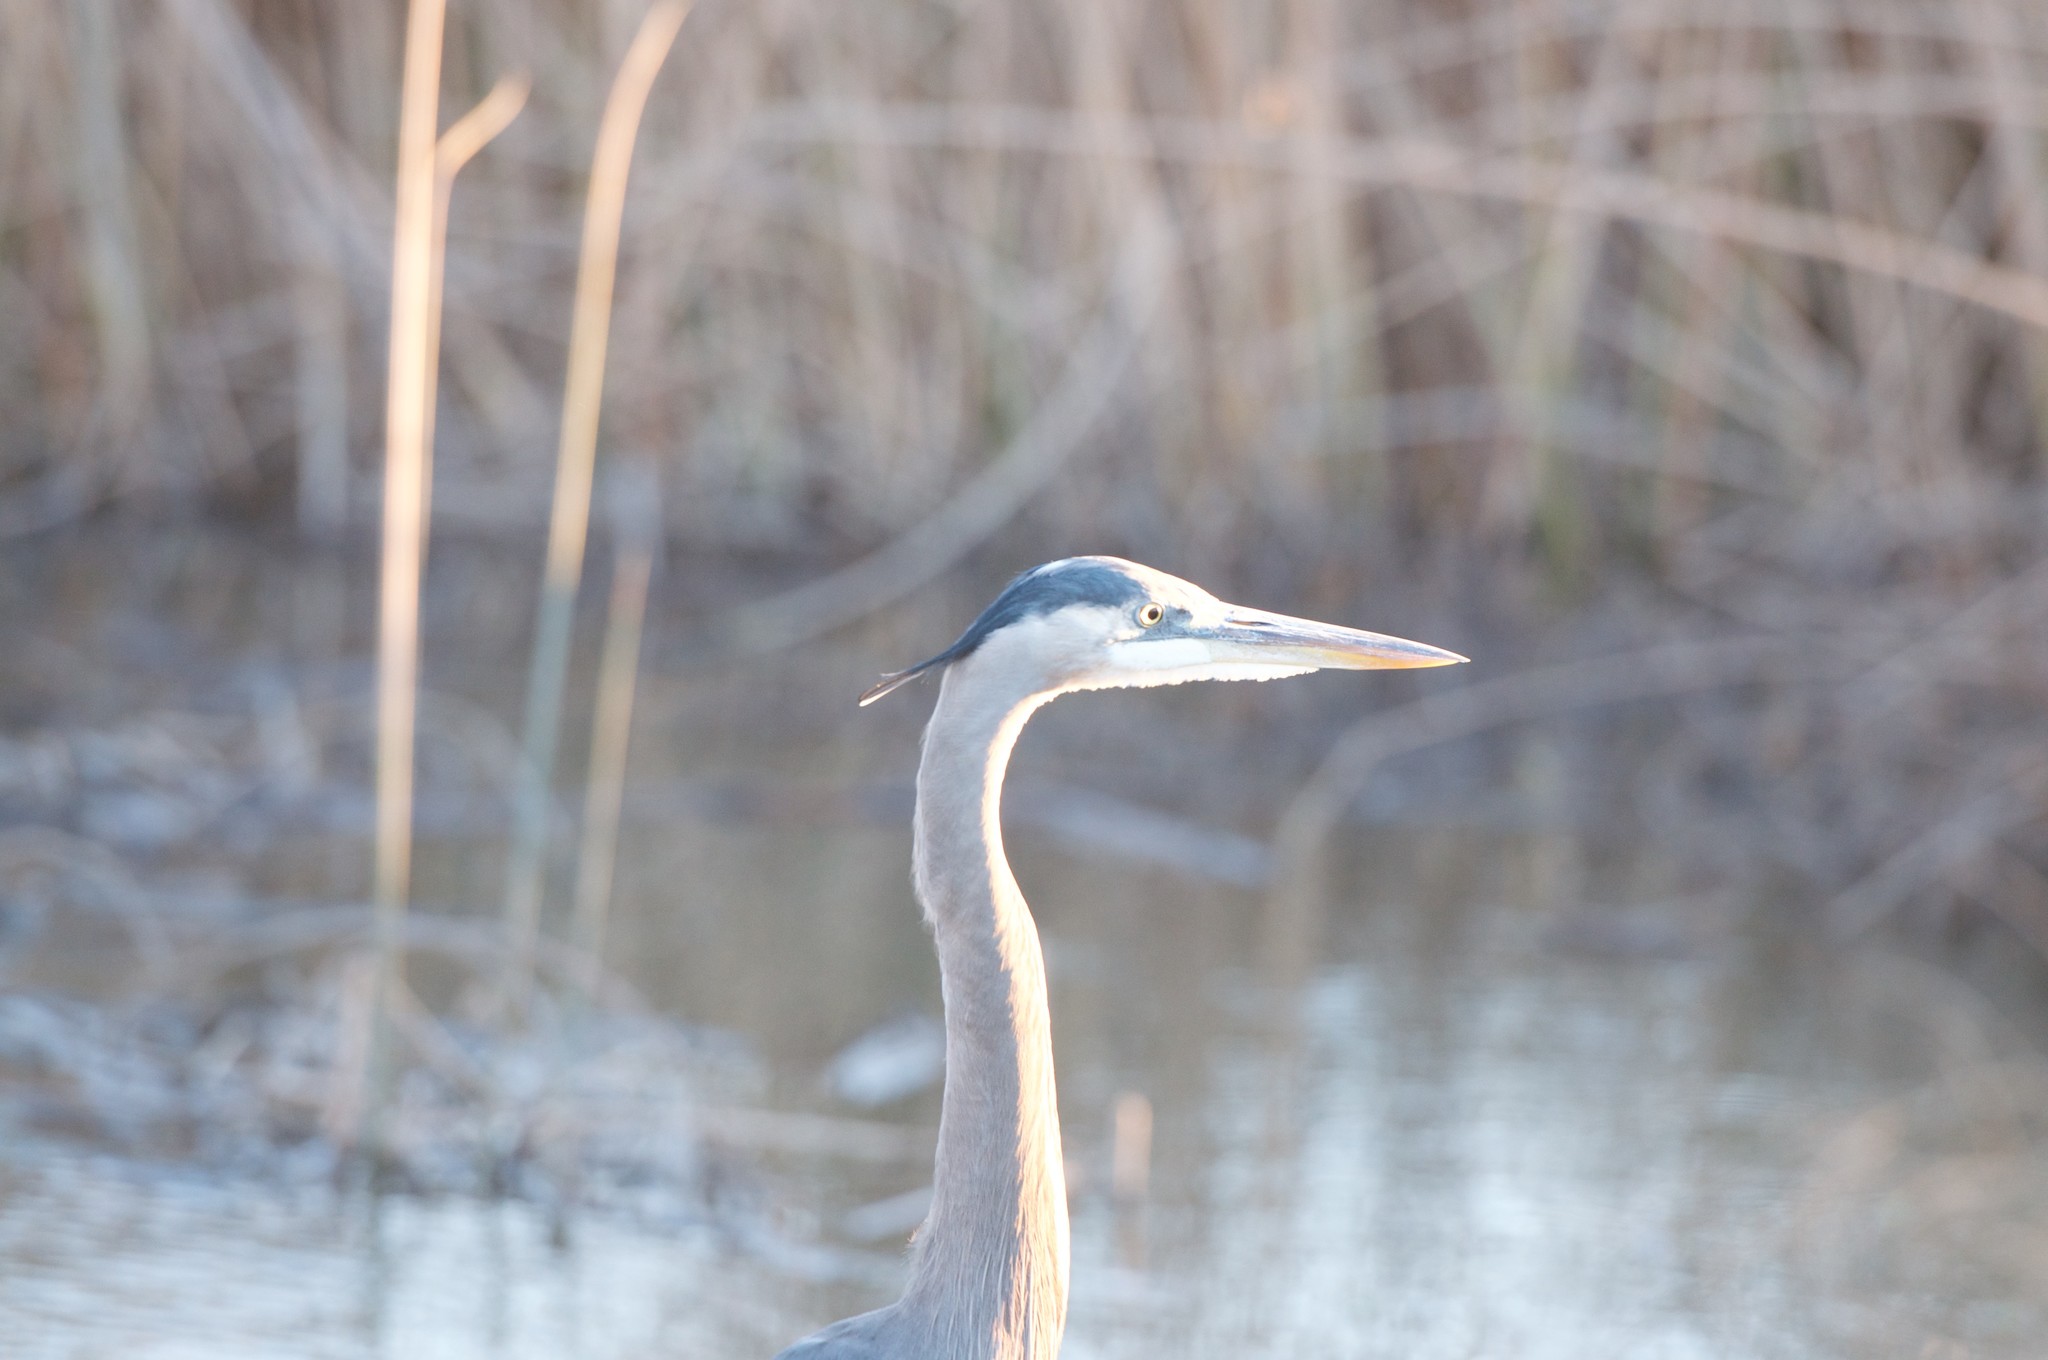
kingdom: Animalia
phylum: Chordata
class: Aves
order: Pelecaniformes
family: Ardeidae
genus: Ardea
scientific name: Ardea herodias
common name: Great blue heron
